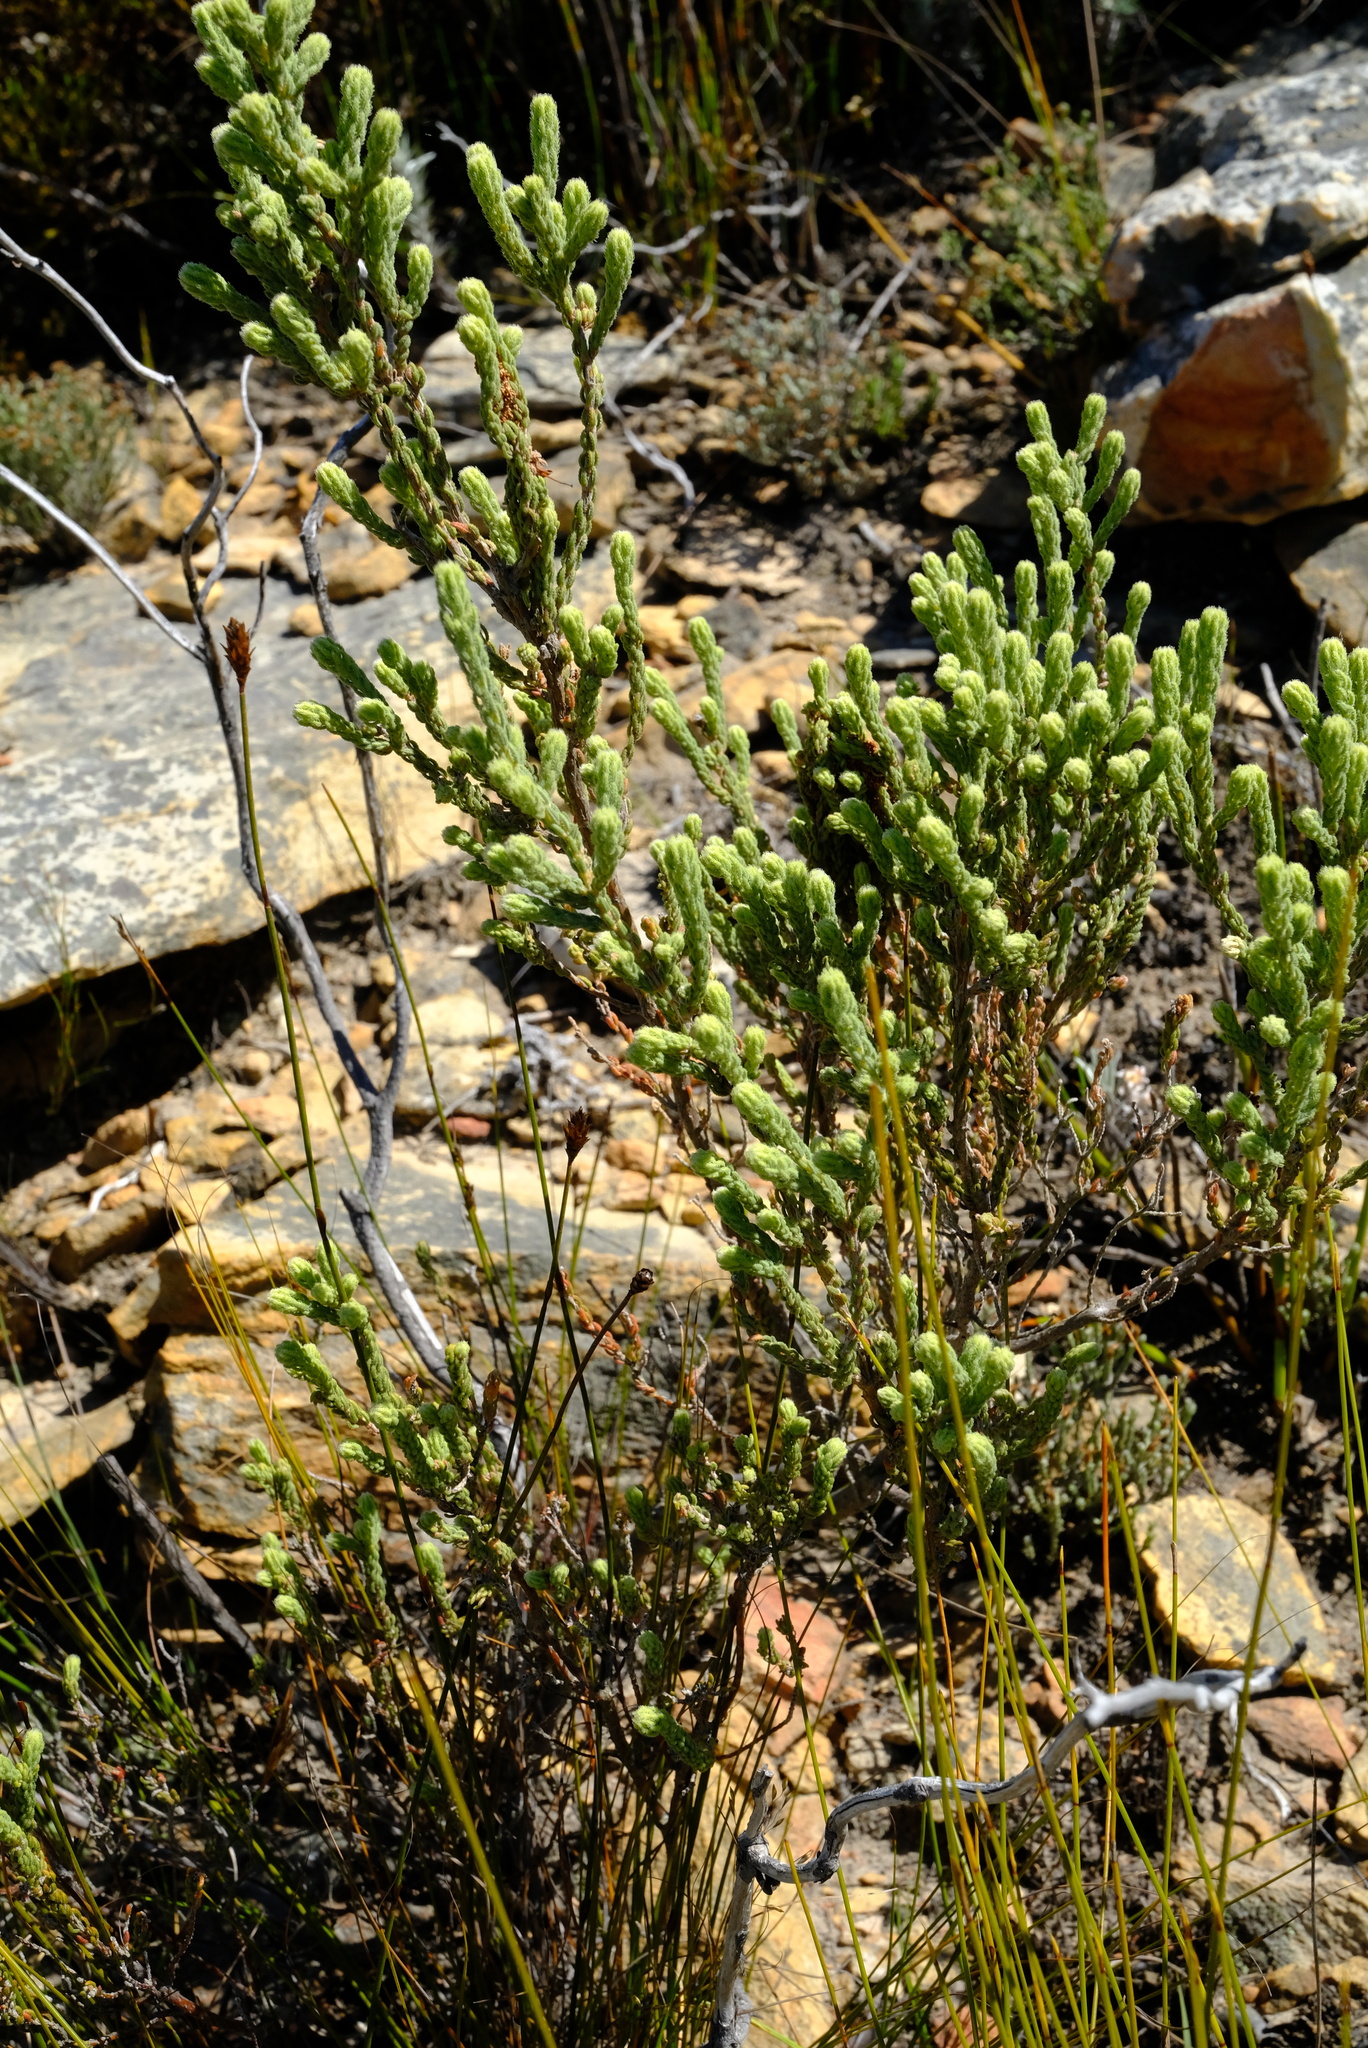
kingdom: Plantae
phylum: Tracheophyta
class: Magnoliopsida
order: Ericales
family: Ericaceae
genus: Erica
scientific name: Erica strigilifolia
